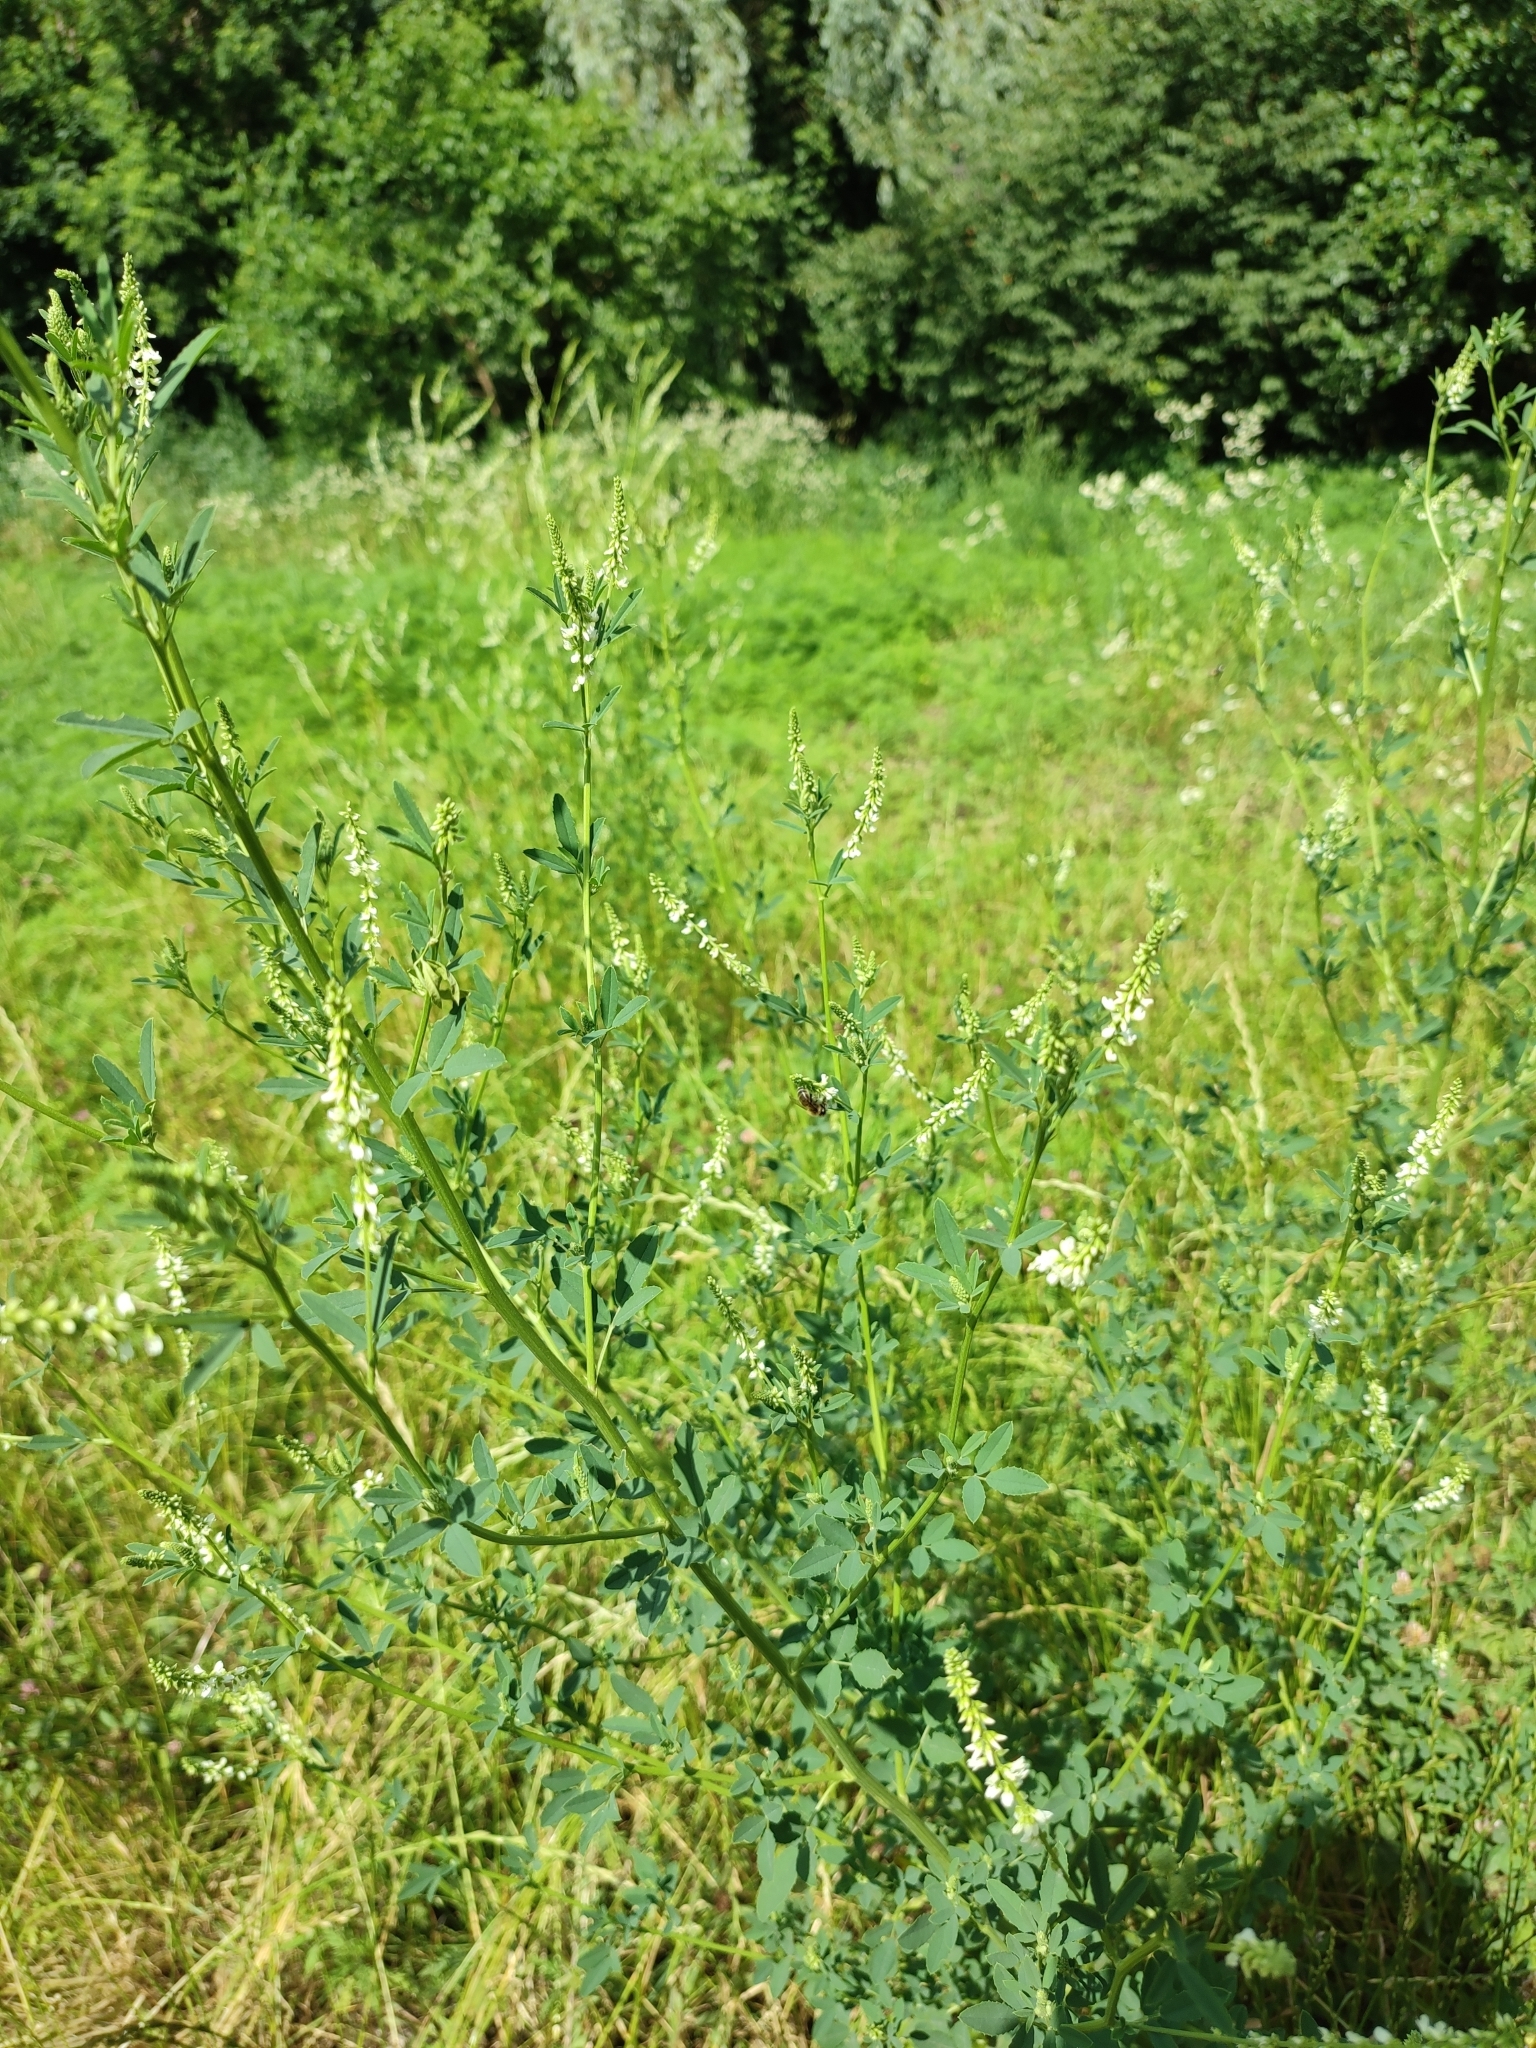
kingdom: Plantae
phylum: Tracheophyta
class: Magnoliopsida
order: Fabales
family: Fabaceae
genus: Melilotus
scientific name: Melilotus albus
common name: White melilot
